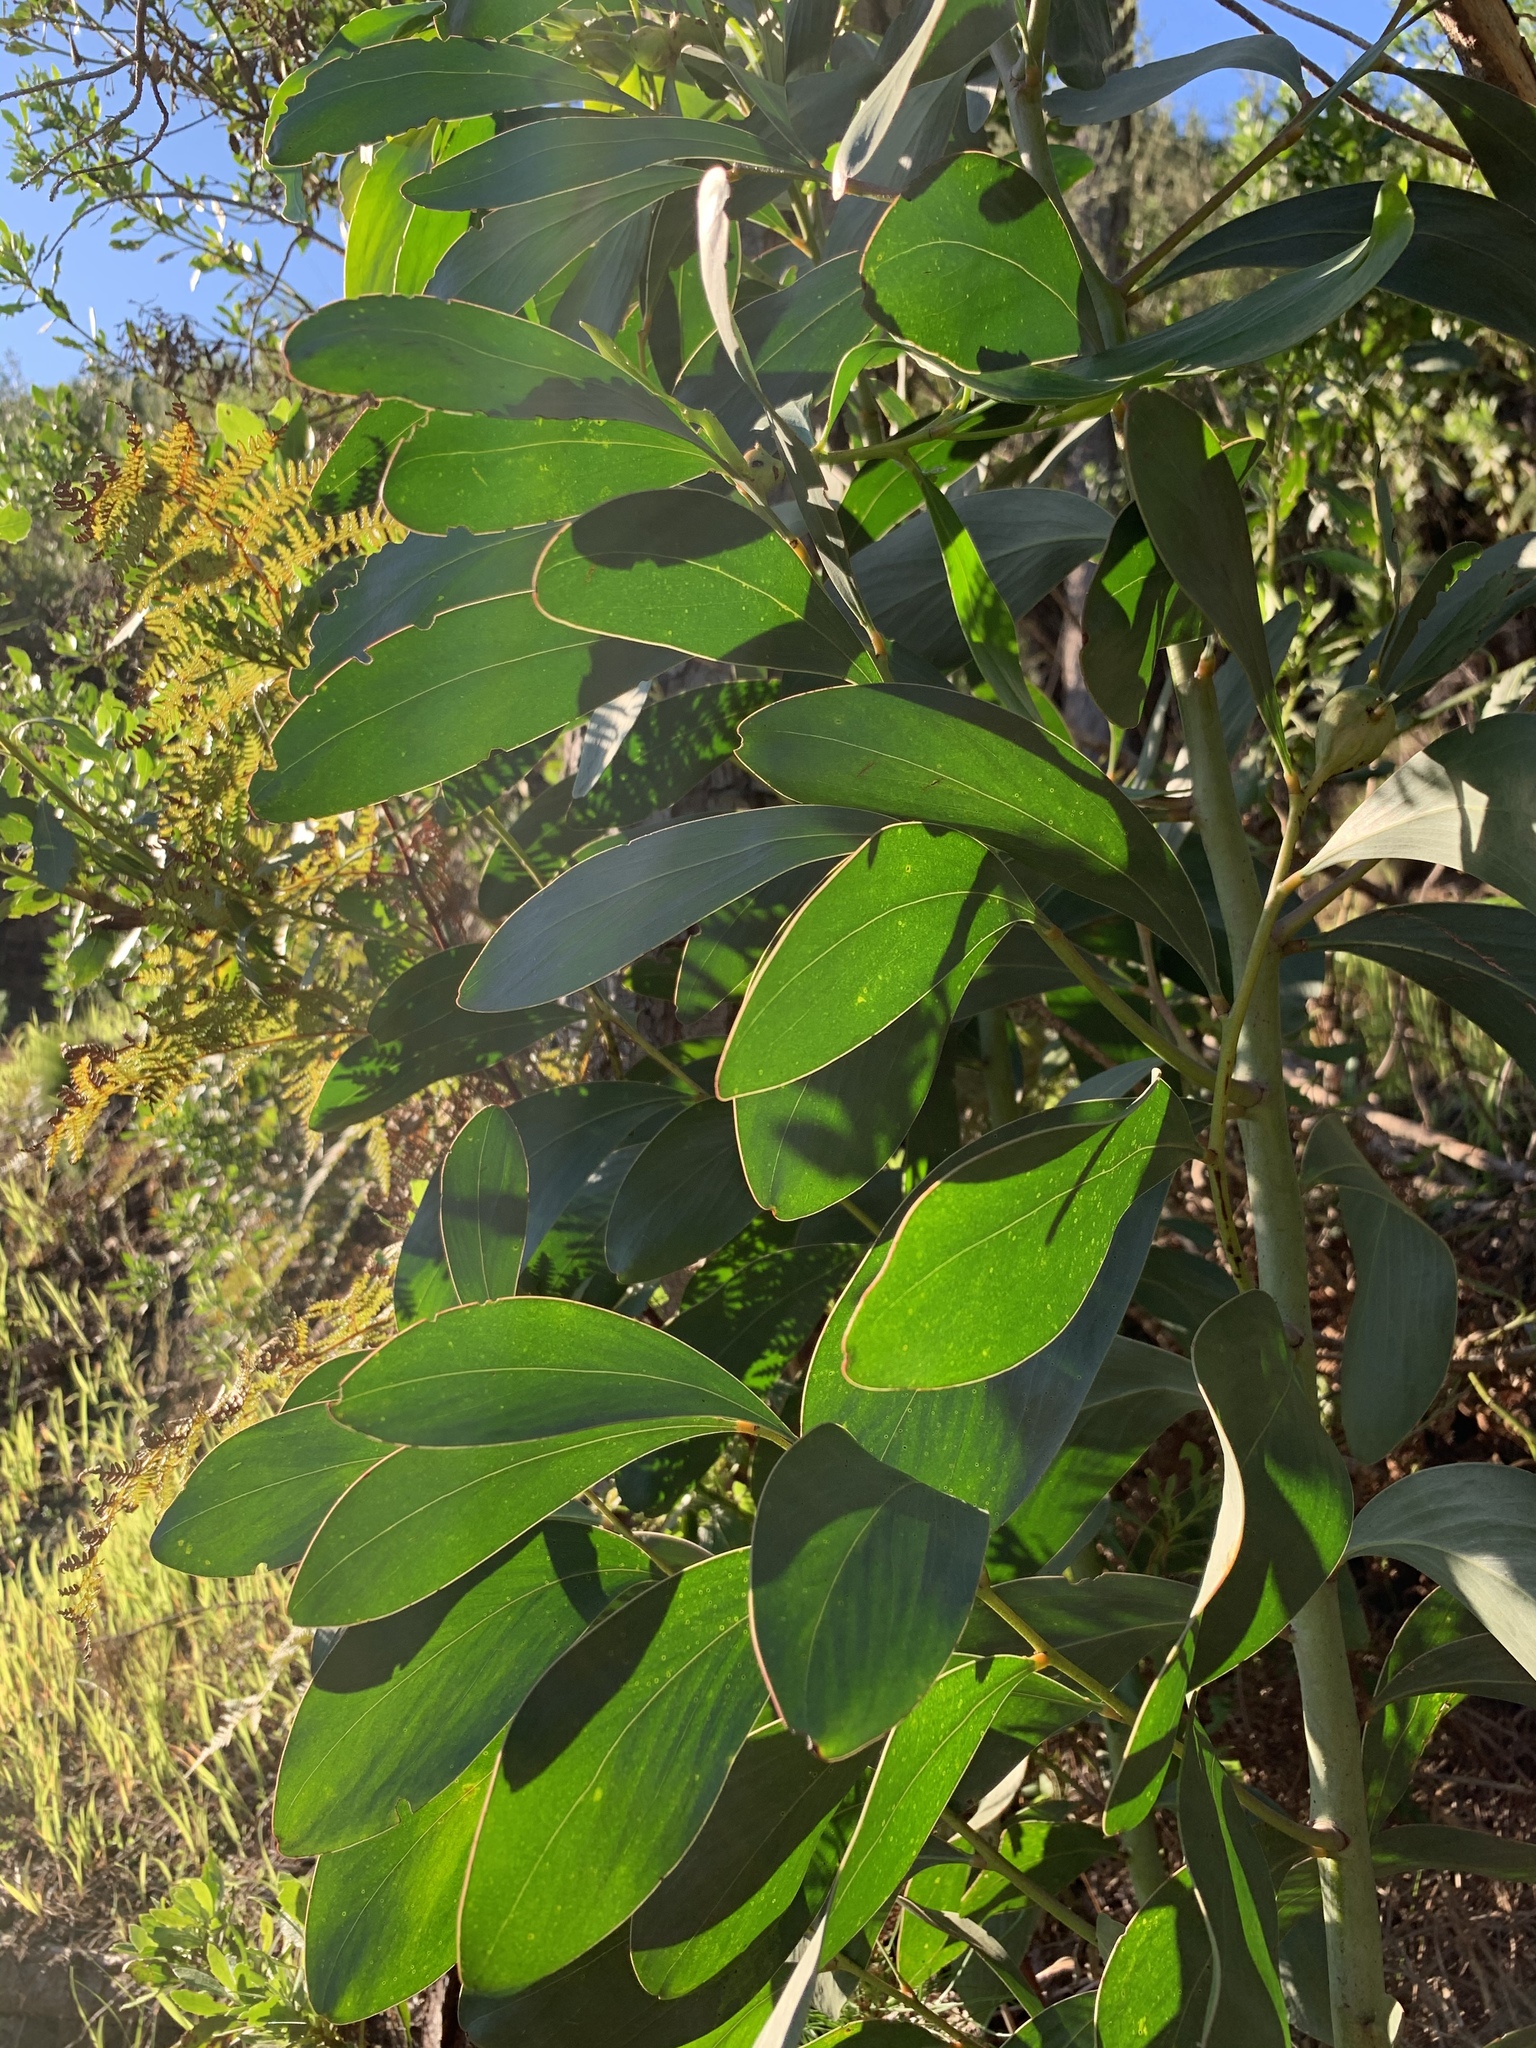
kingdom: Plantae
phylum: Tracheophyta
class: Magnoliopsida
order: Fabales
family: Fabaceae
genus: Acacia
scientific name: Acacia pycnantha
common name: Golden wattle
